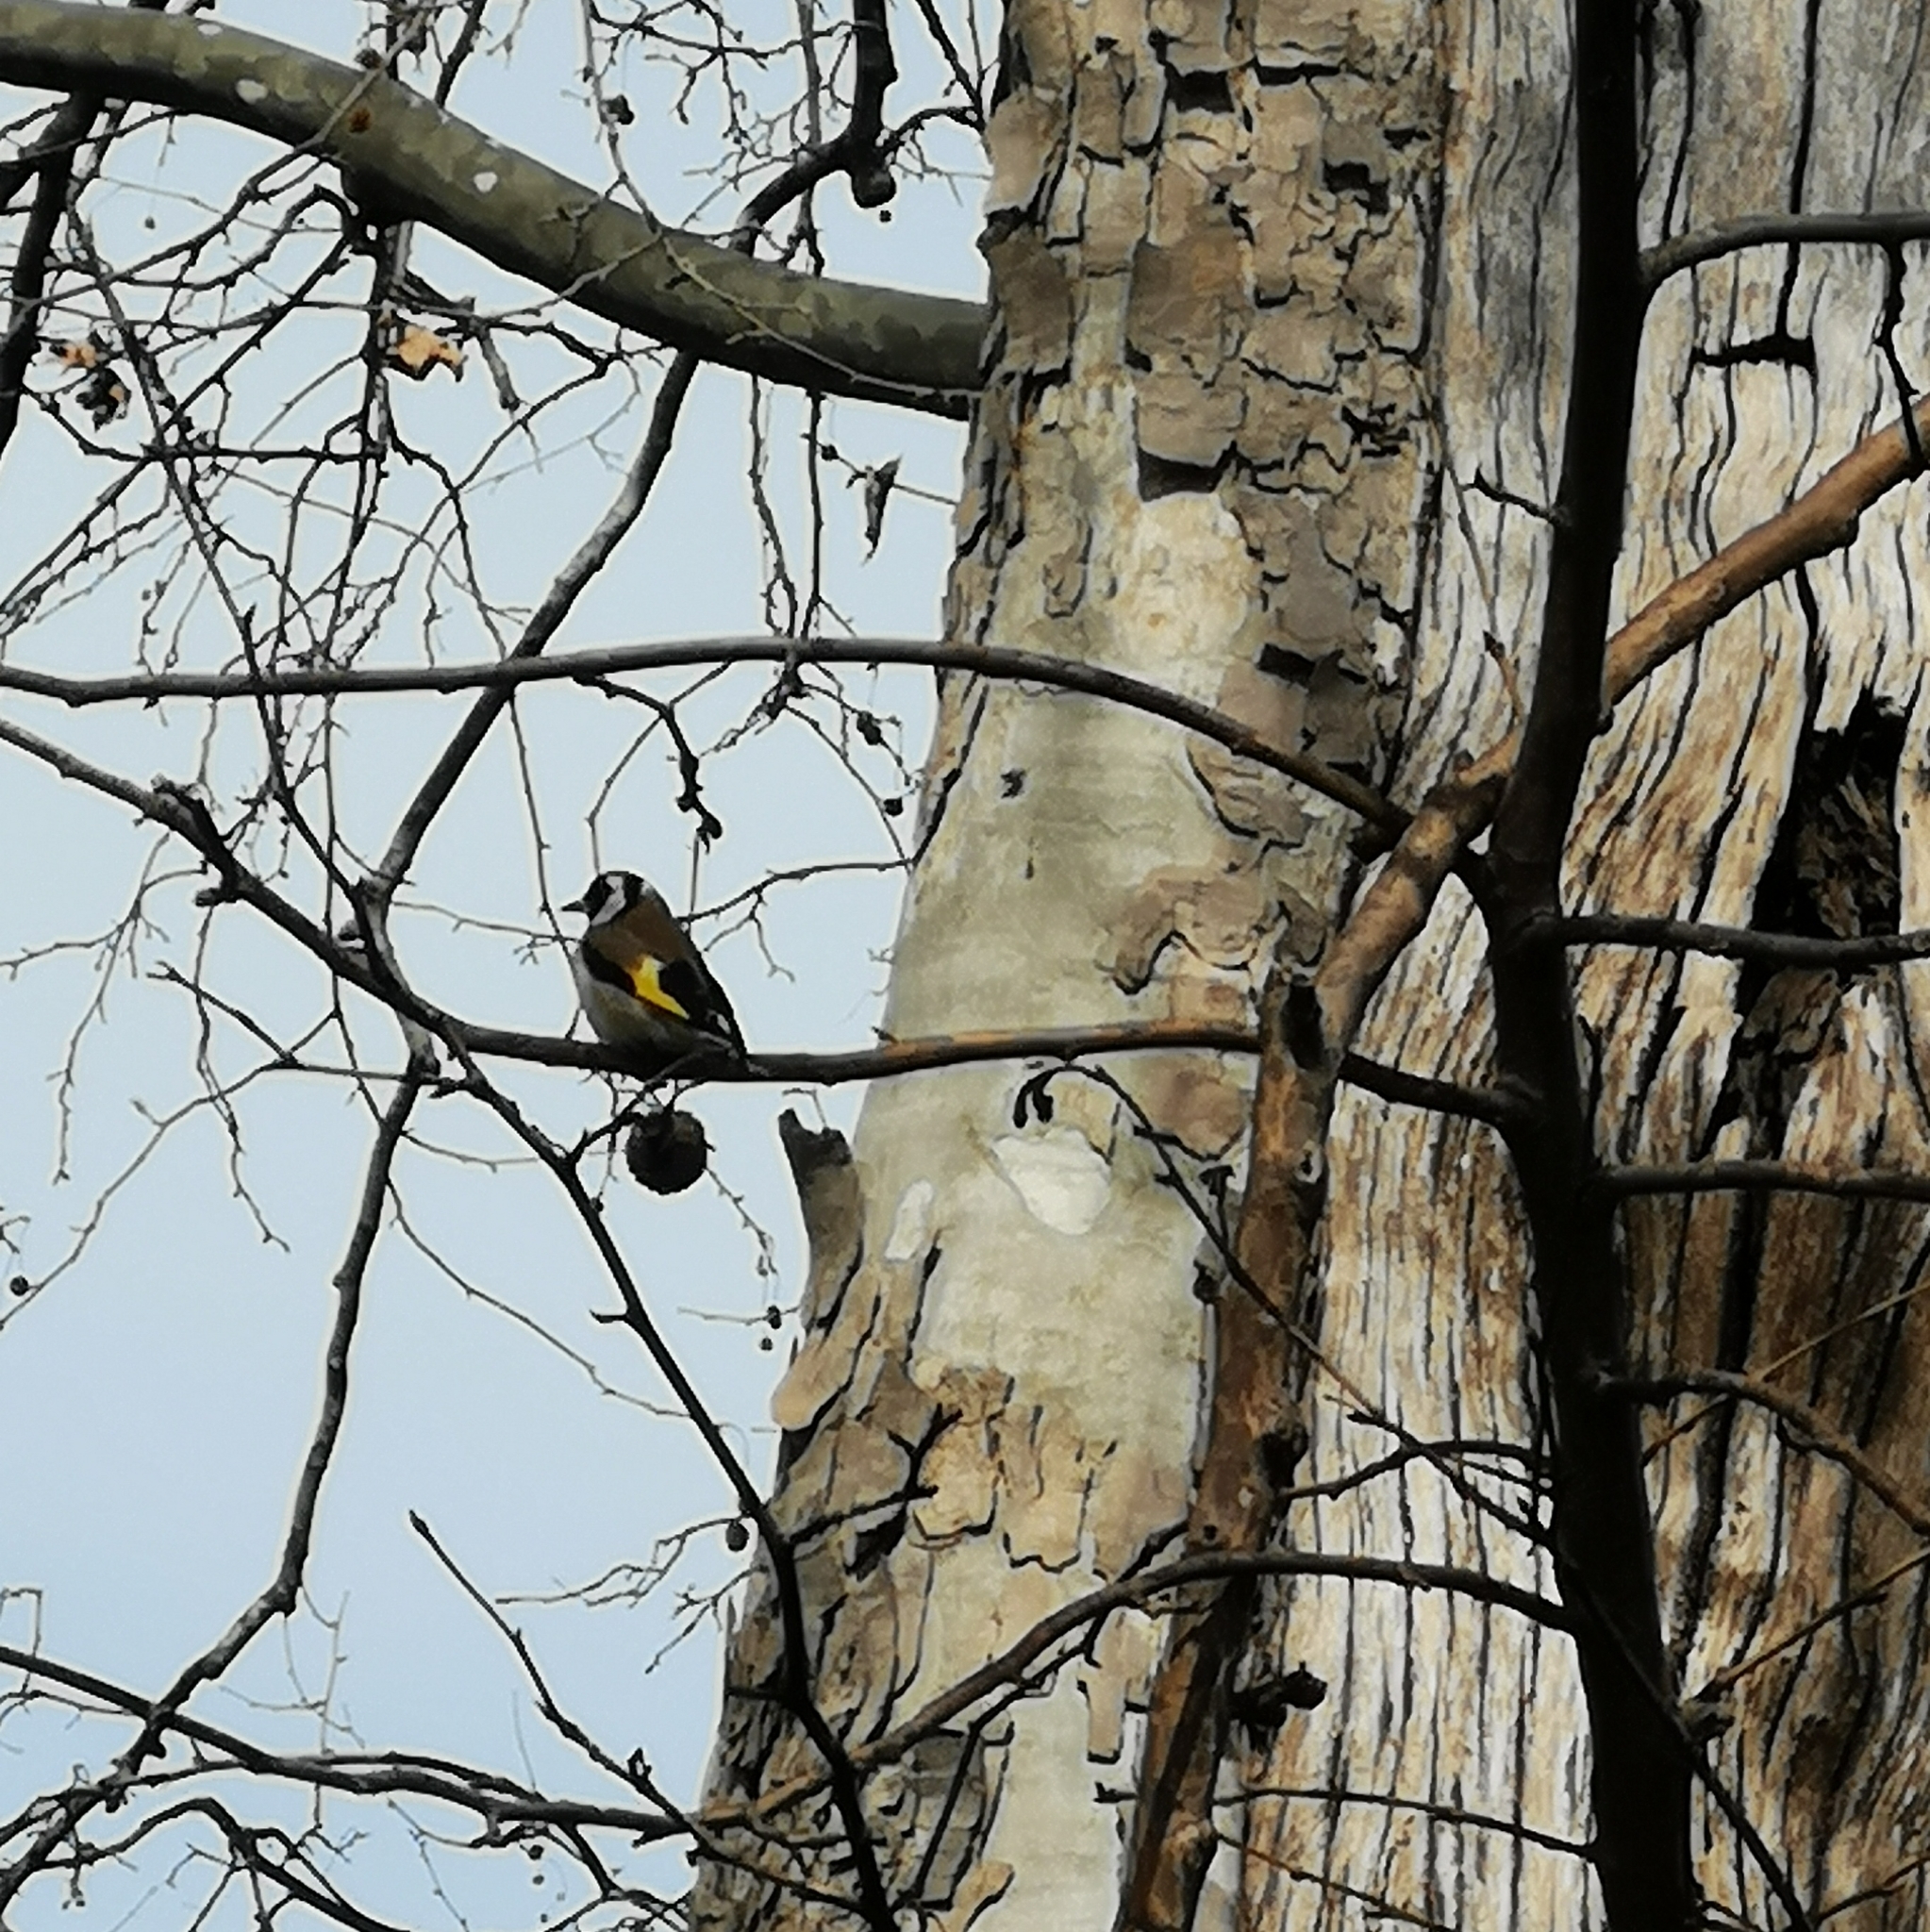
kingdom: Animalia
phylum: Chordata
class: Aves
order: Passeriformes
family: Fringillidae
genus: Carduelis
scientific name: Carduelis carduelis
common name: European goldfinch
